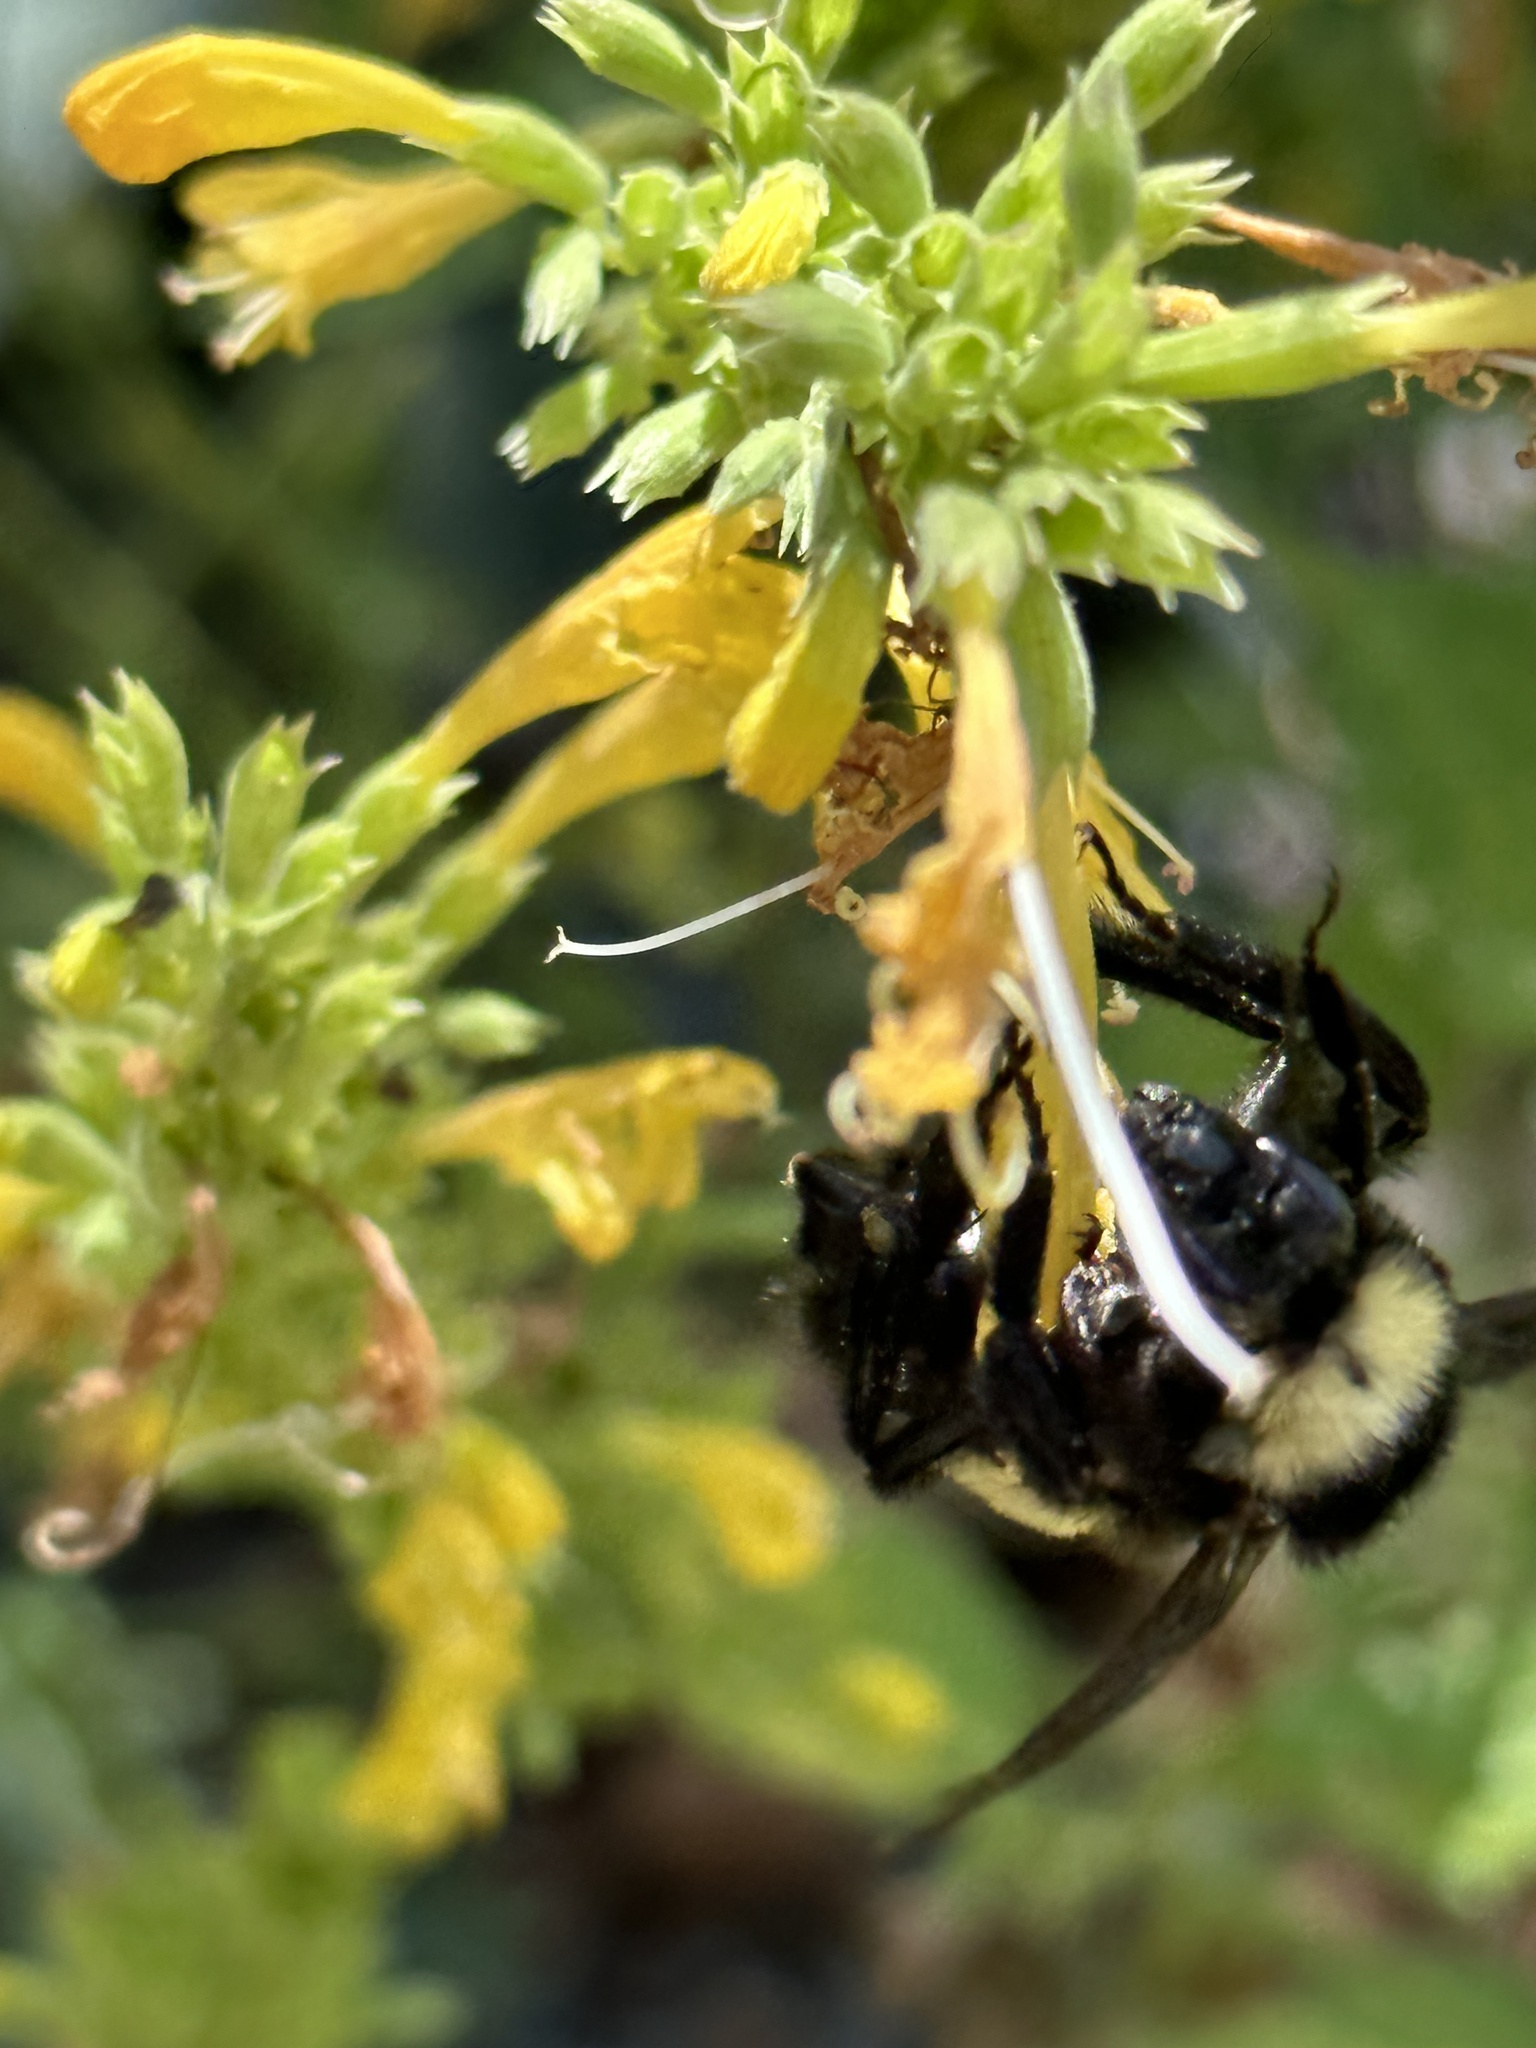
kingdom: Animalia
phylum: Arthropoda
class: Insecta
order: Hymenoptera
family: Apidae
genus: Bombus
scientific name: Bombus pensylvanicus
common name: Bumble bee
